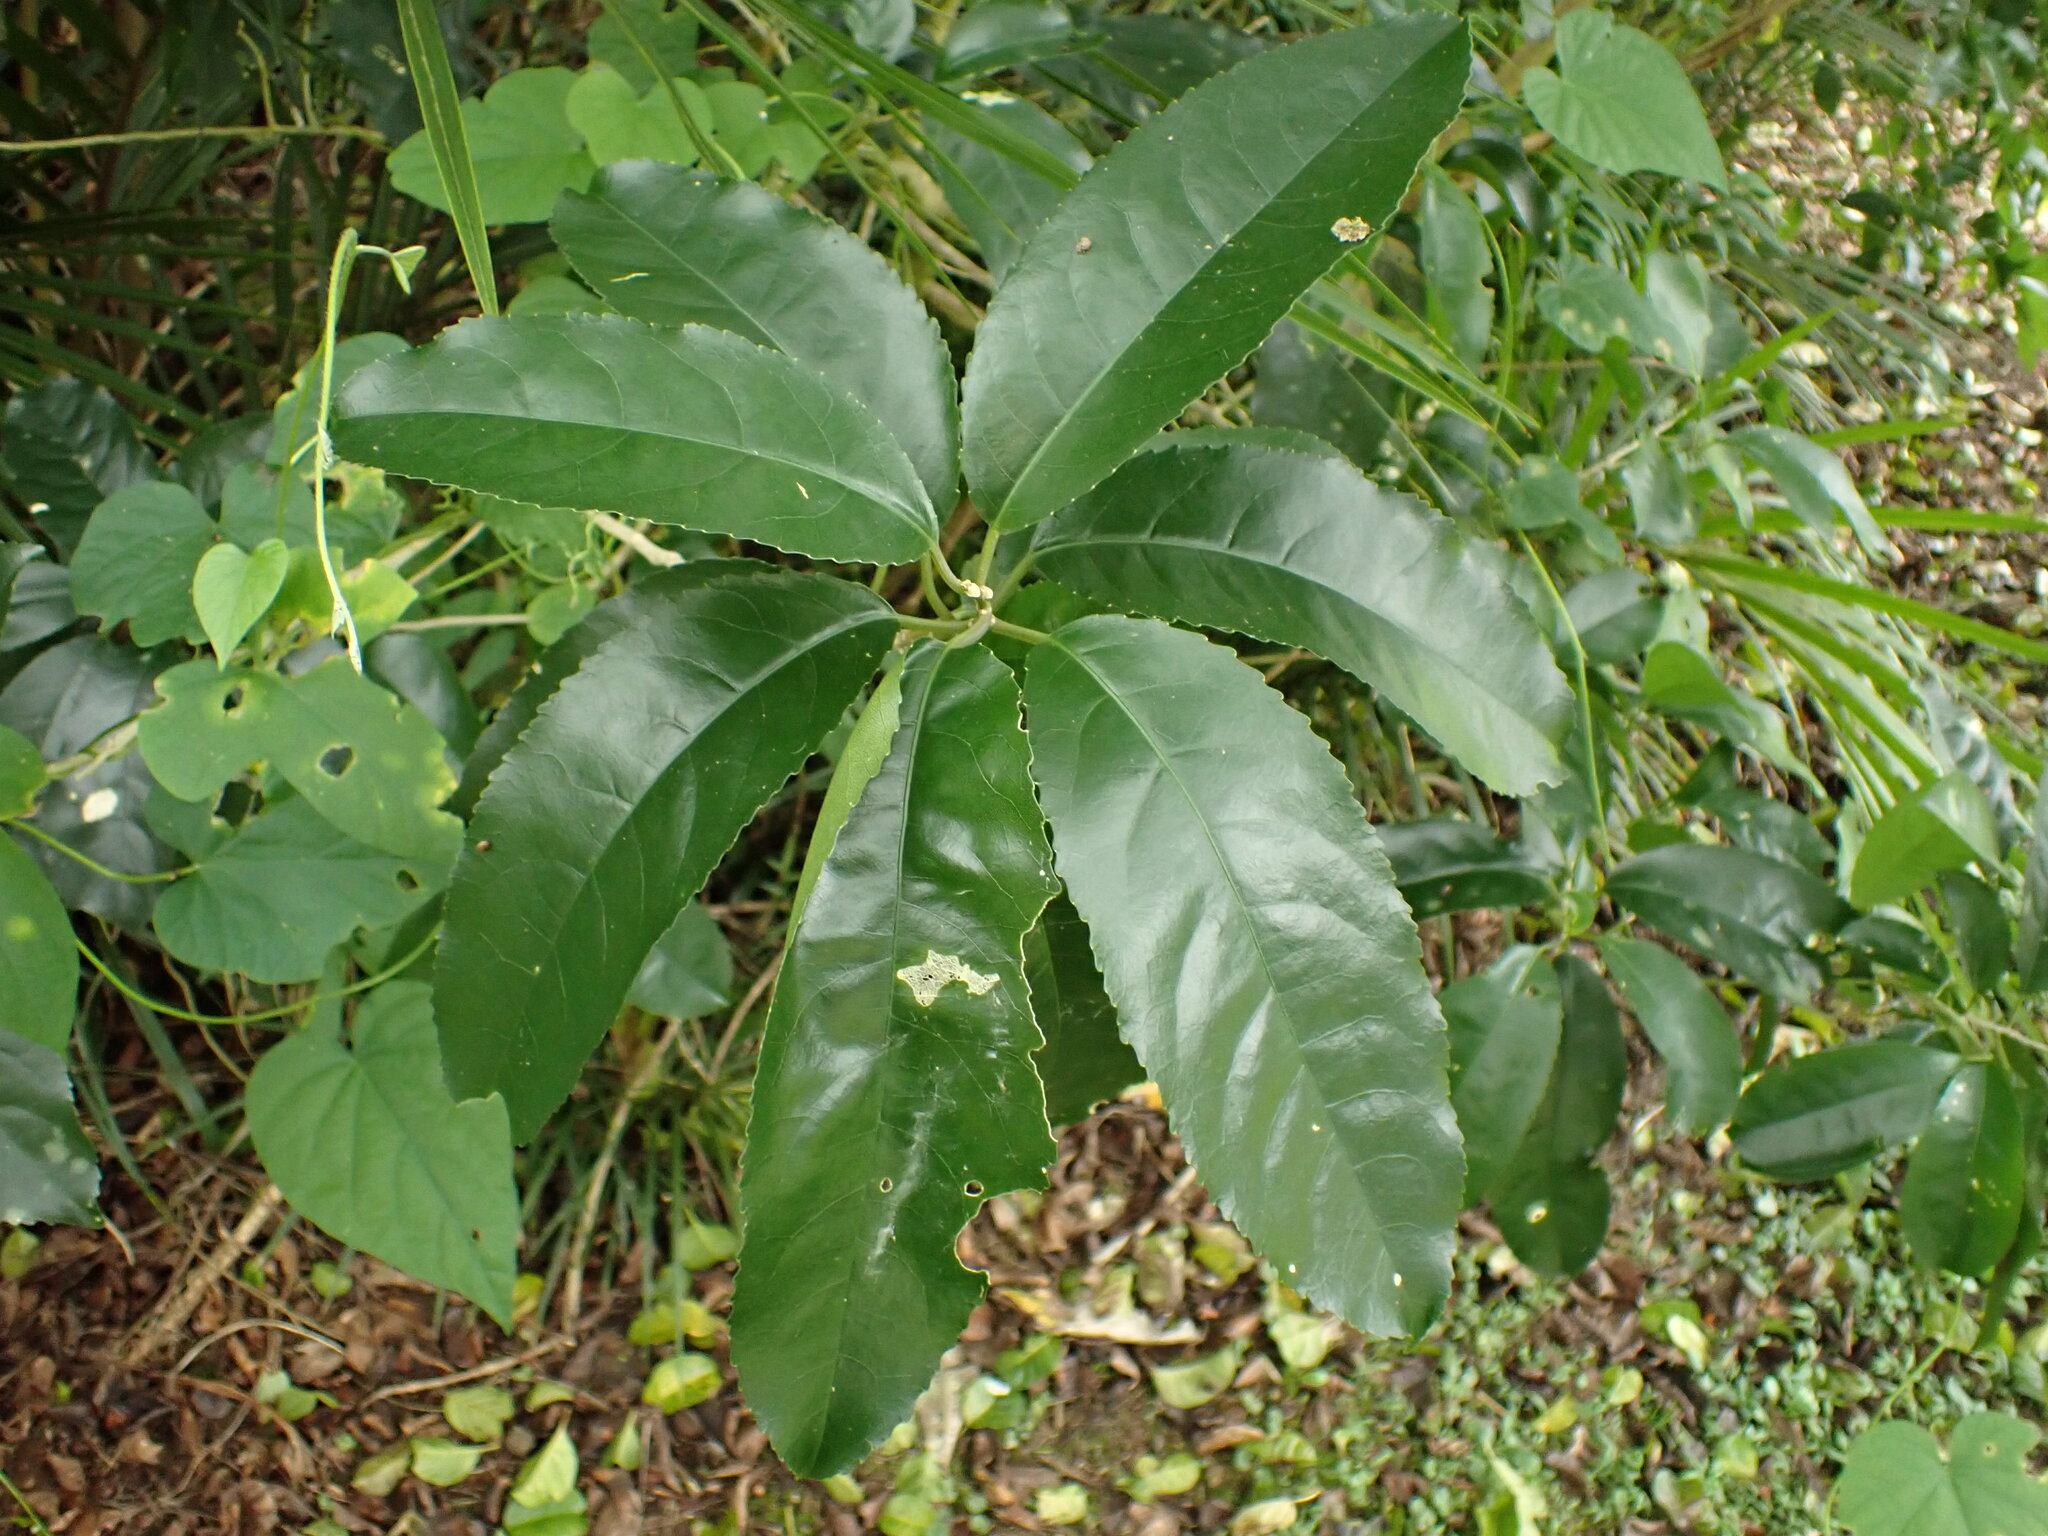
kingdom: Plantae
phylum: Tracheophyta
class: Magnoliopsida
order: Malpighiales
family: Violaceae
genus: Melicytus
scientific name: Melicytus ramiflorus
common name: Mahoe
